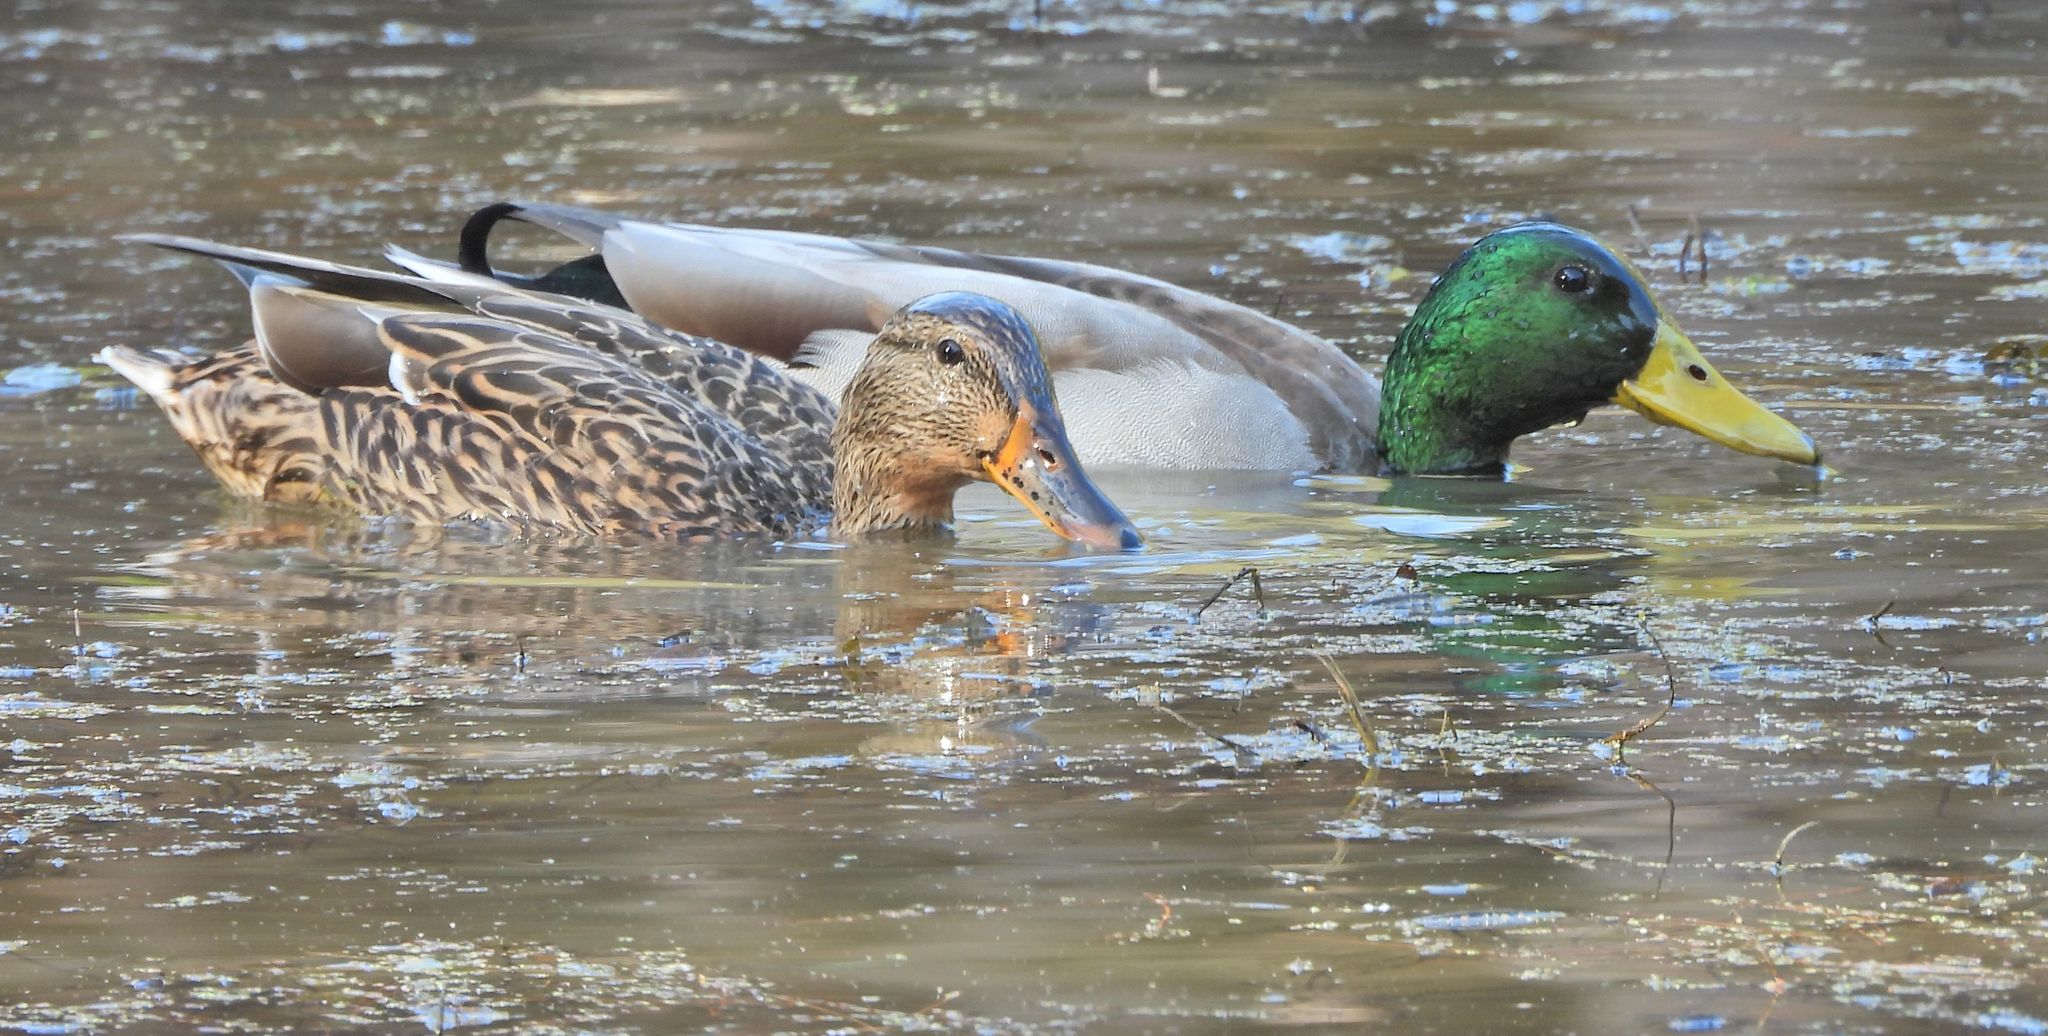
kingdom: Animalia
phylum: Chordata
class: Aves
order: Anseriformes
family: Anatidae
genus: Anas
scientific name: Anas platyrhynchos
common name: Mallard
